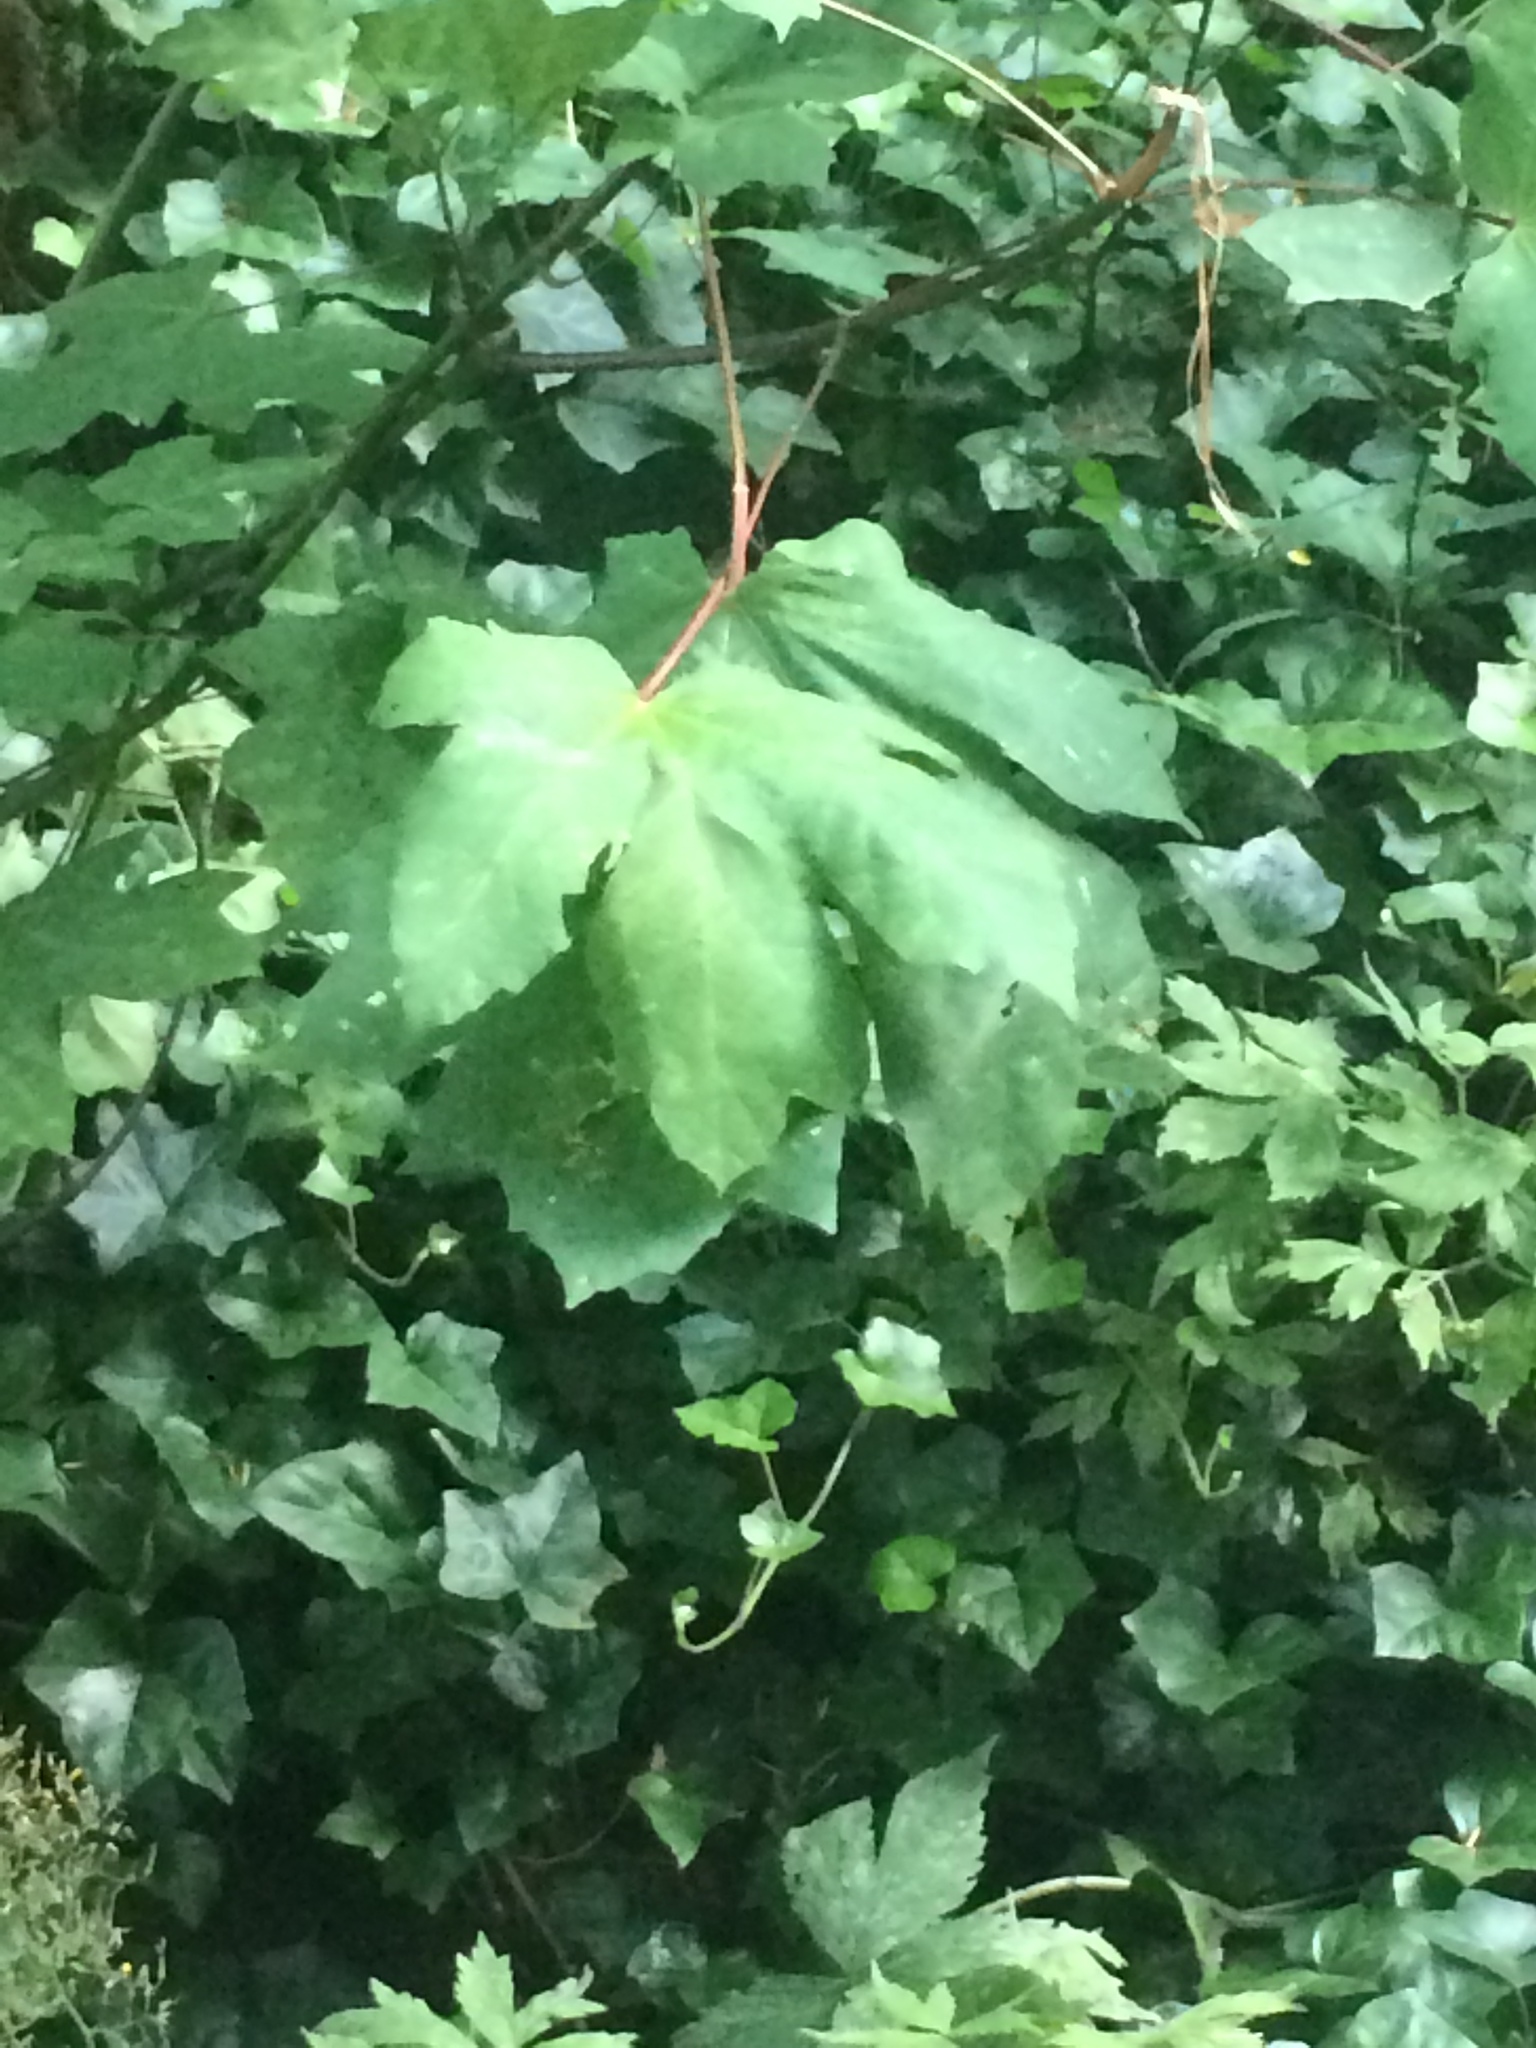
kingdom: Plantae
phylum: Tracheophyta
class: Magnoliopsida
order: Sapindales
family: Sapindaceae
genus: Acer
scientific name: Acer macrophyllum
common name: Oregon maple
